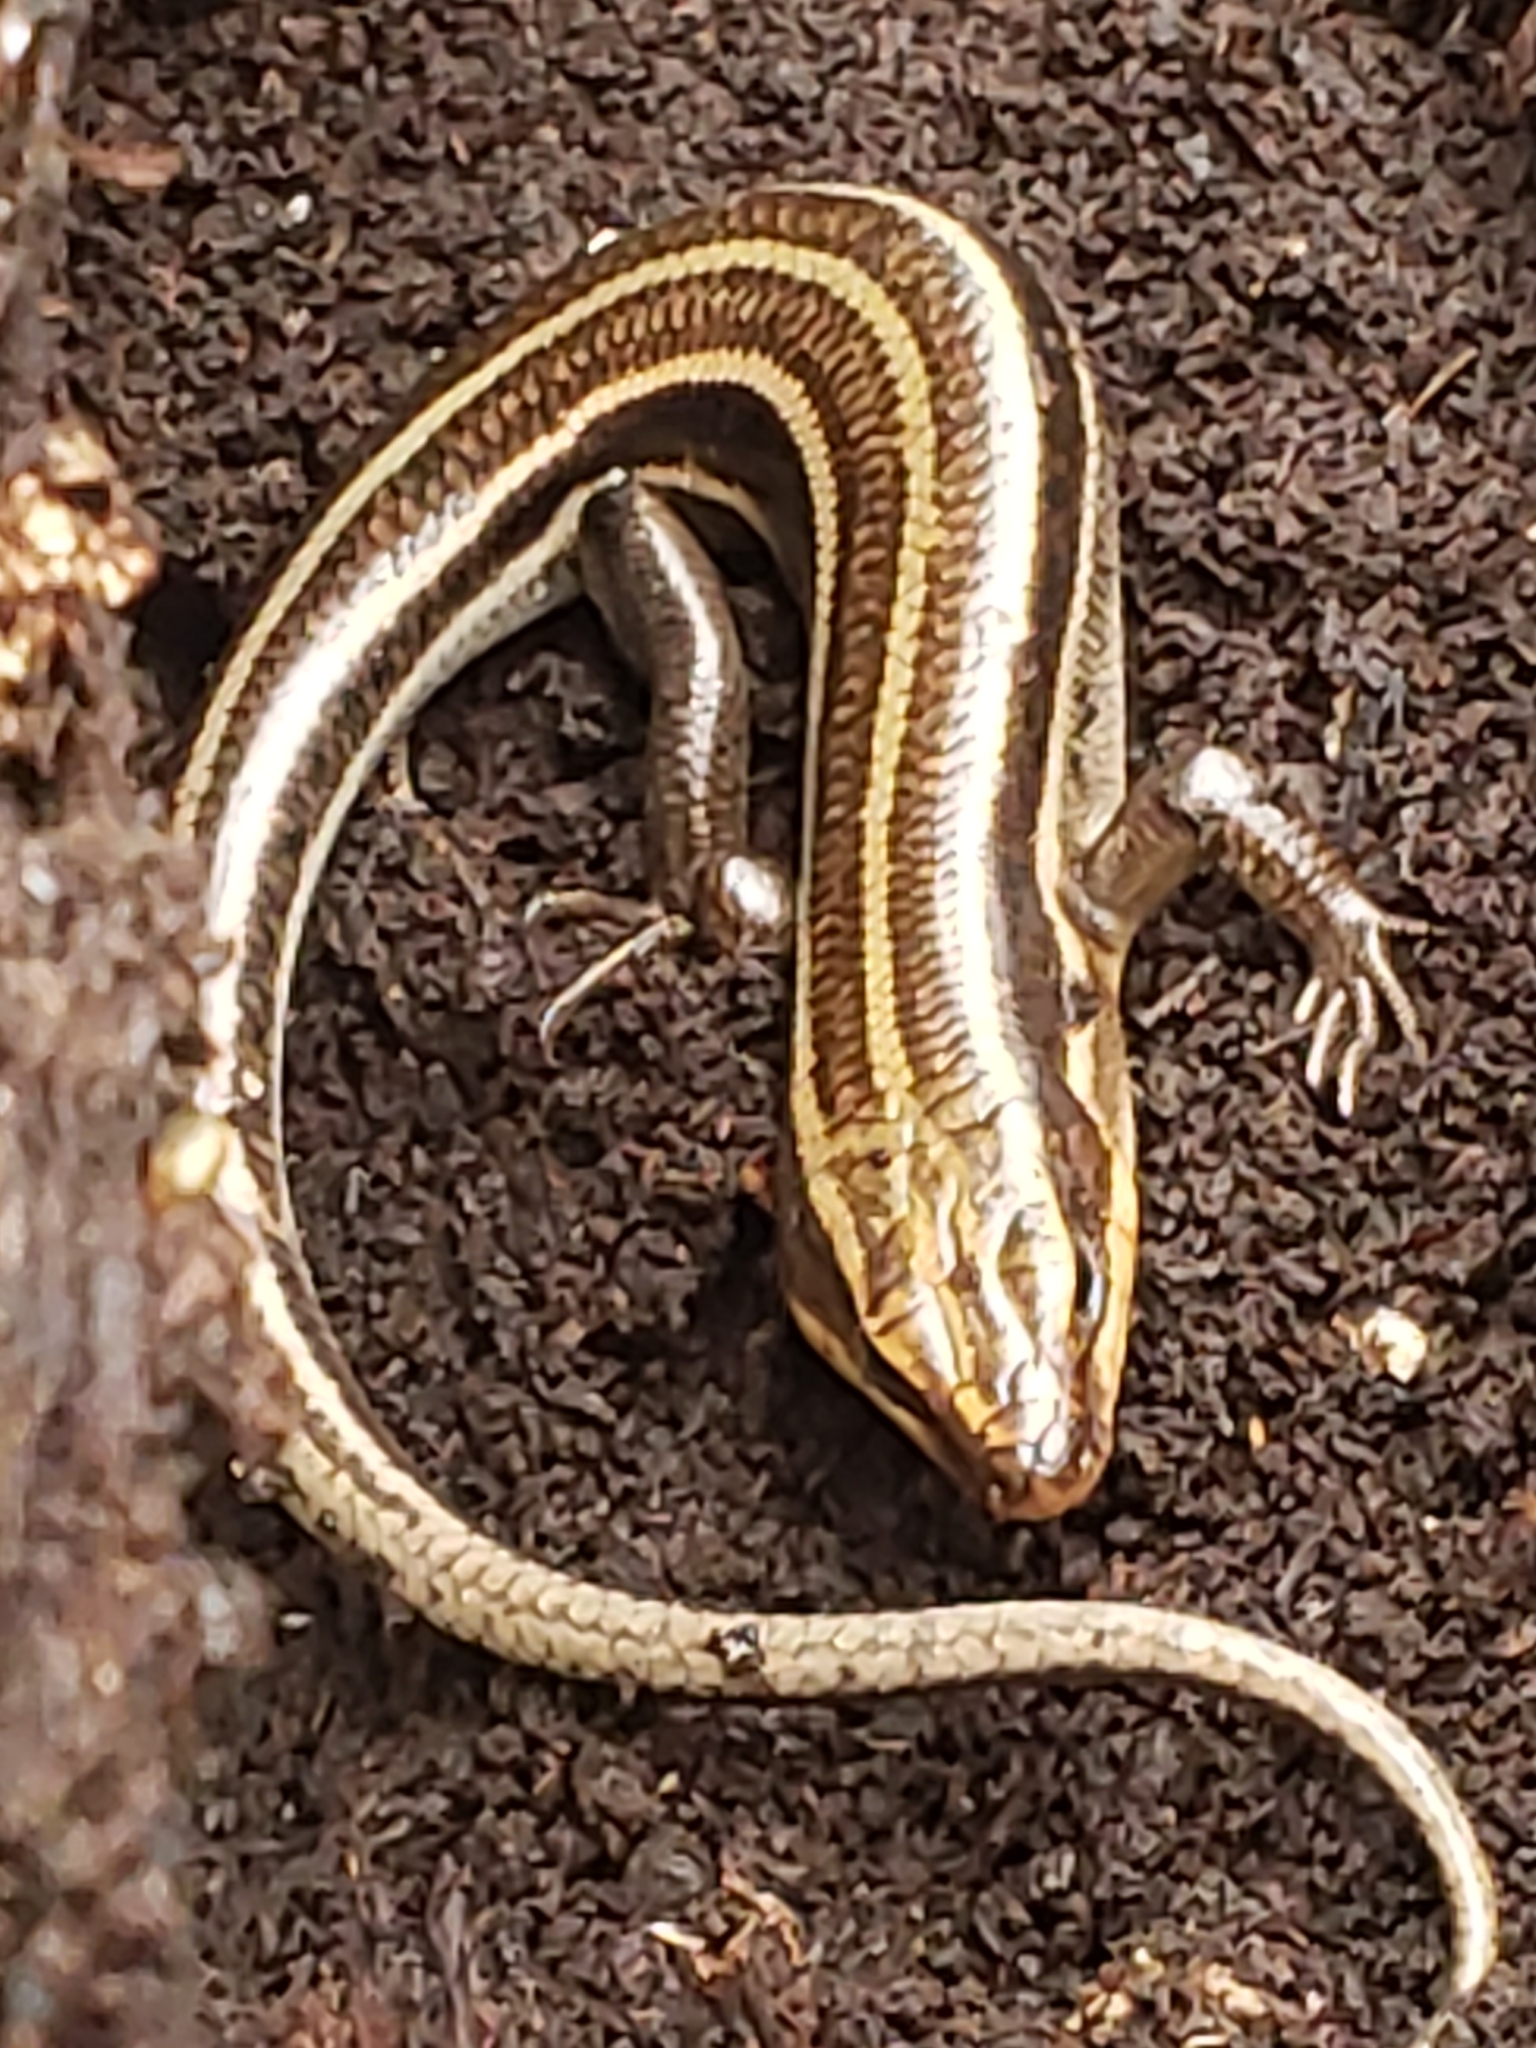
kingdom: Animalia
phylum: Chordata
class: Squamata
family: Scincidae
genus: Plestiodon
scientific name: Plestiodon fasciatus
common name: Five-lined skink
